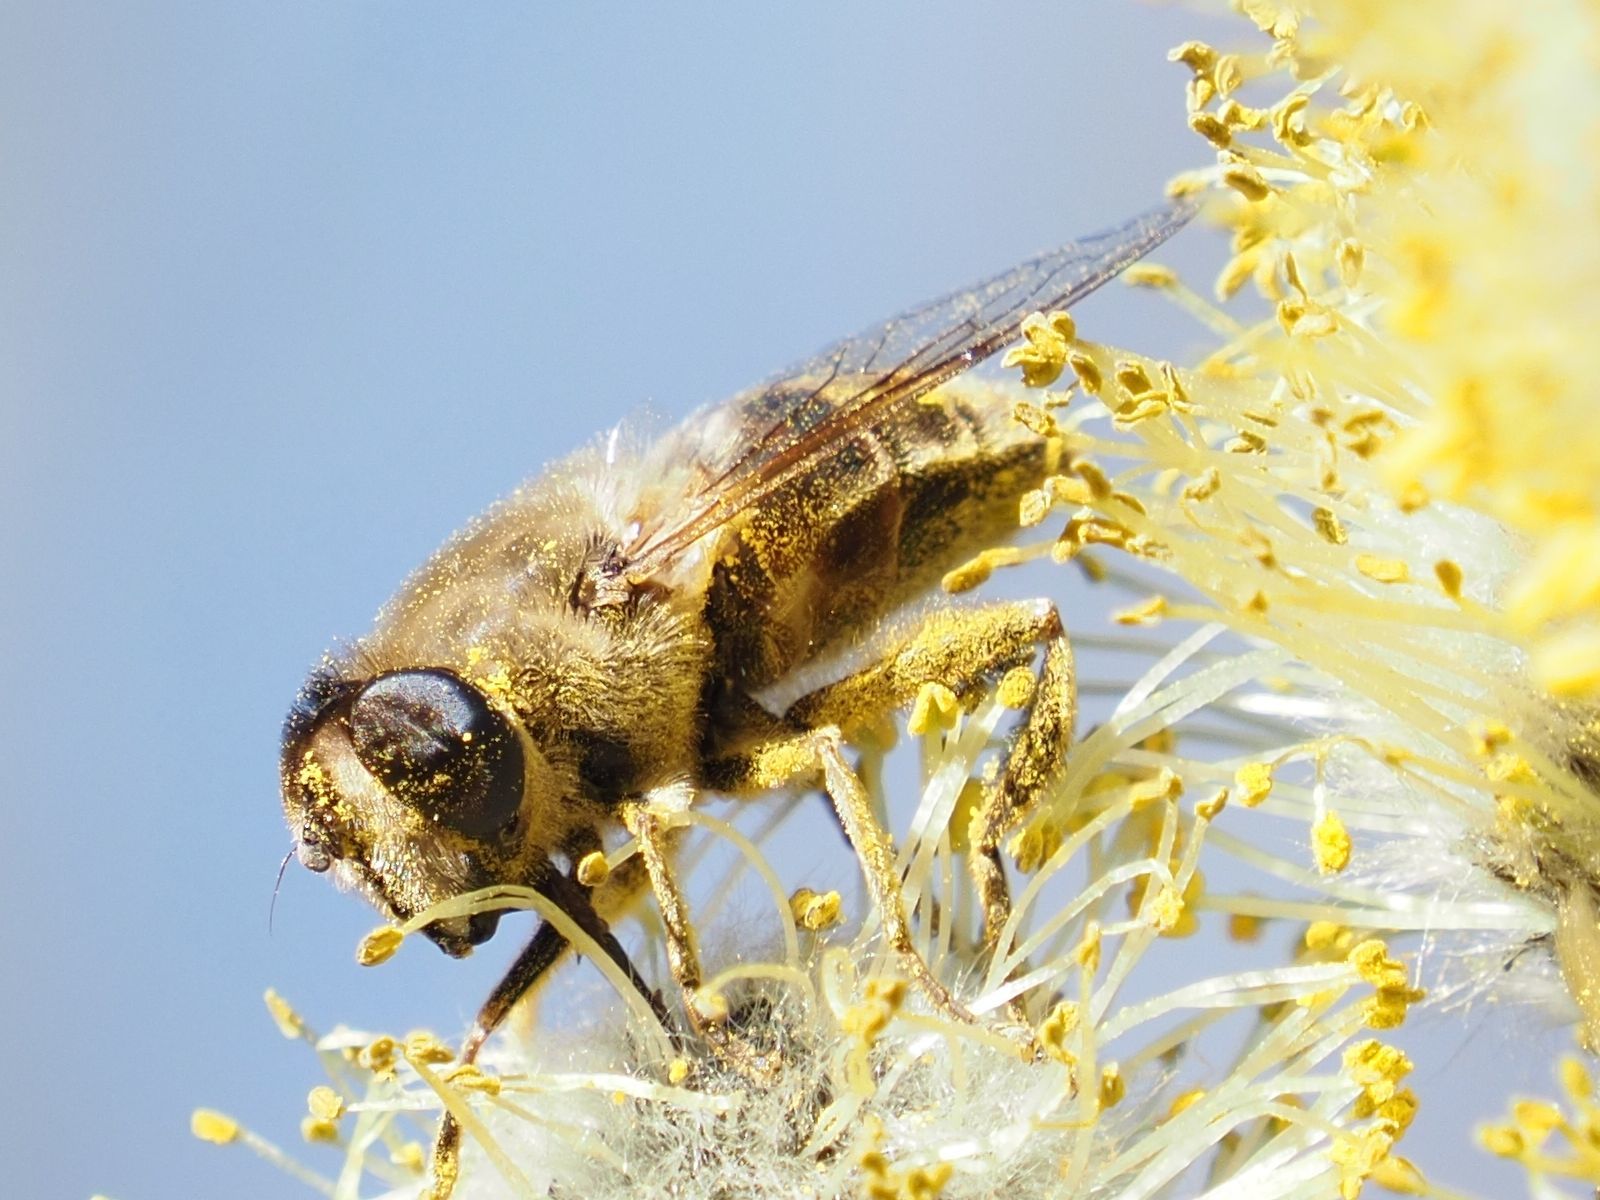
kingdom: Animalia
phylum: Arthropoda
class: Insecta
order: Diptera
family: Syrphidae
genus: Eristalis
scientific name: Eristalis tenax
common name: Drone fly
